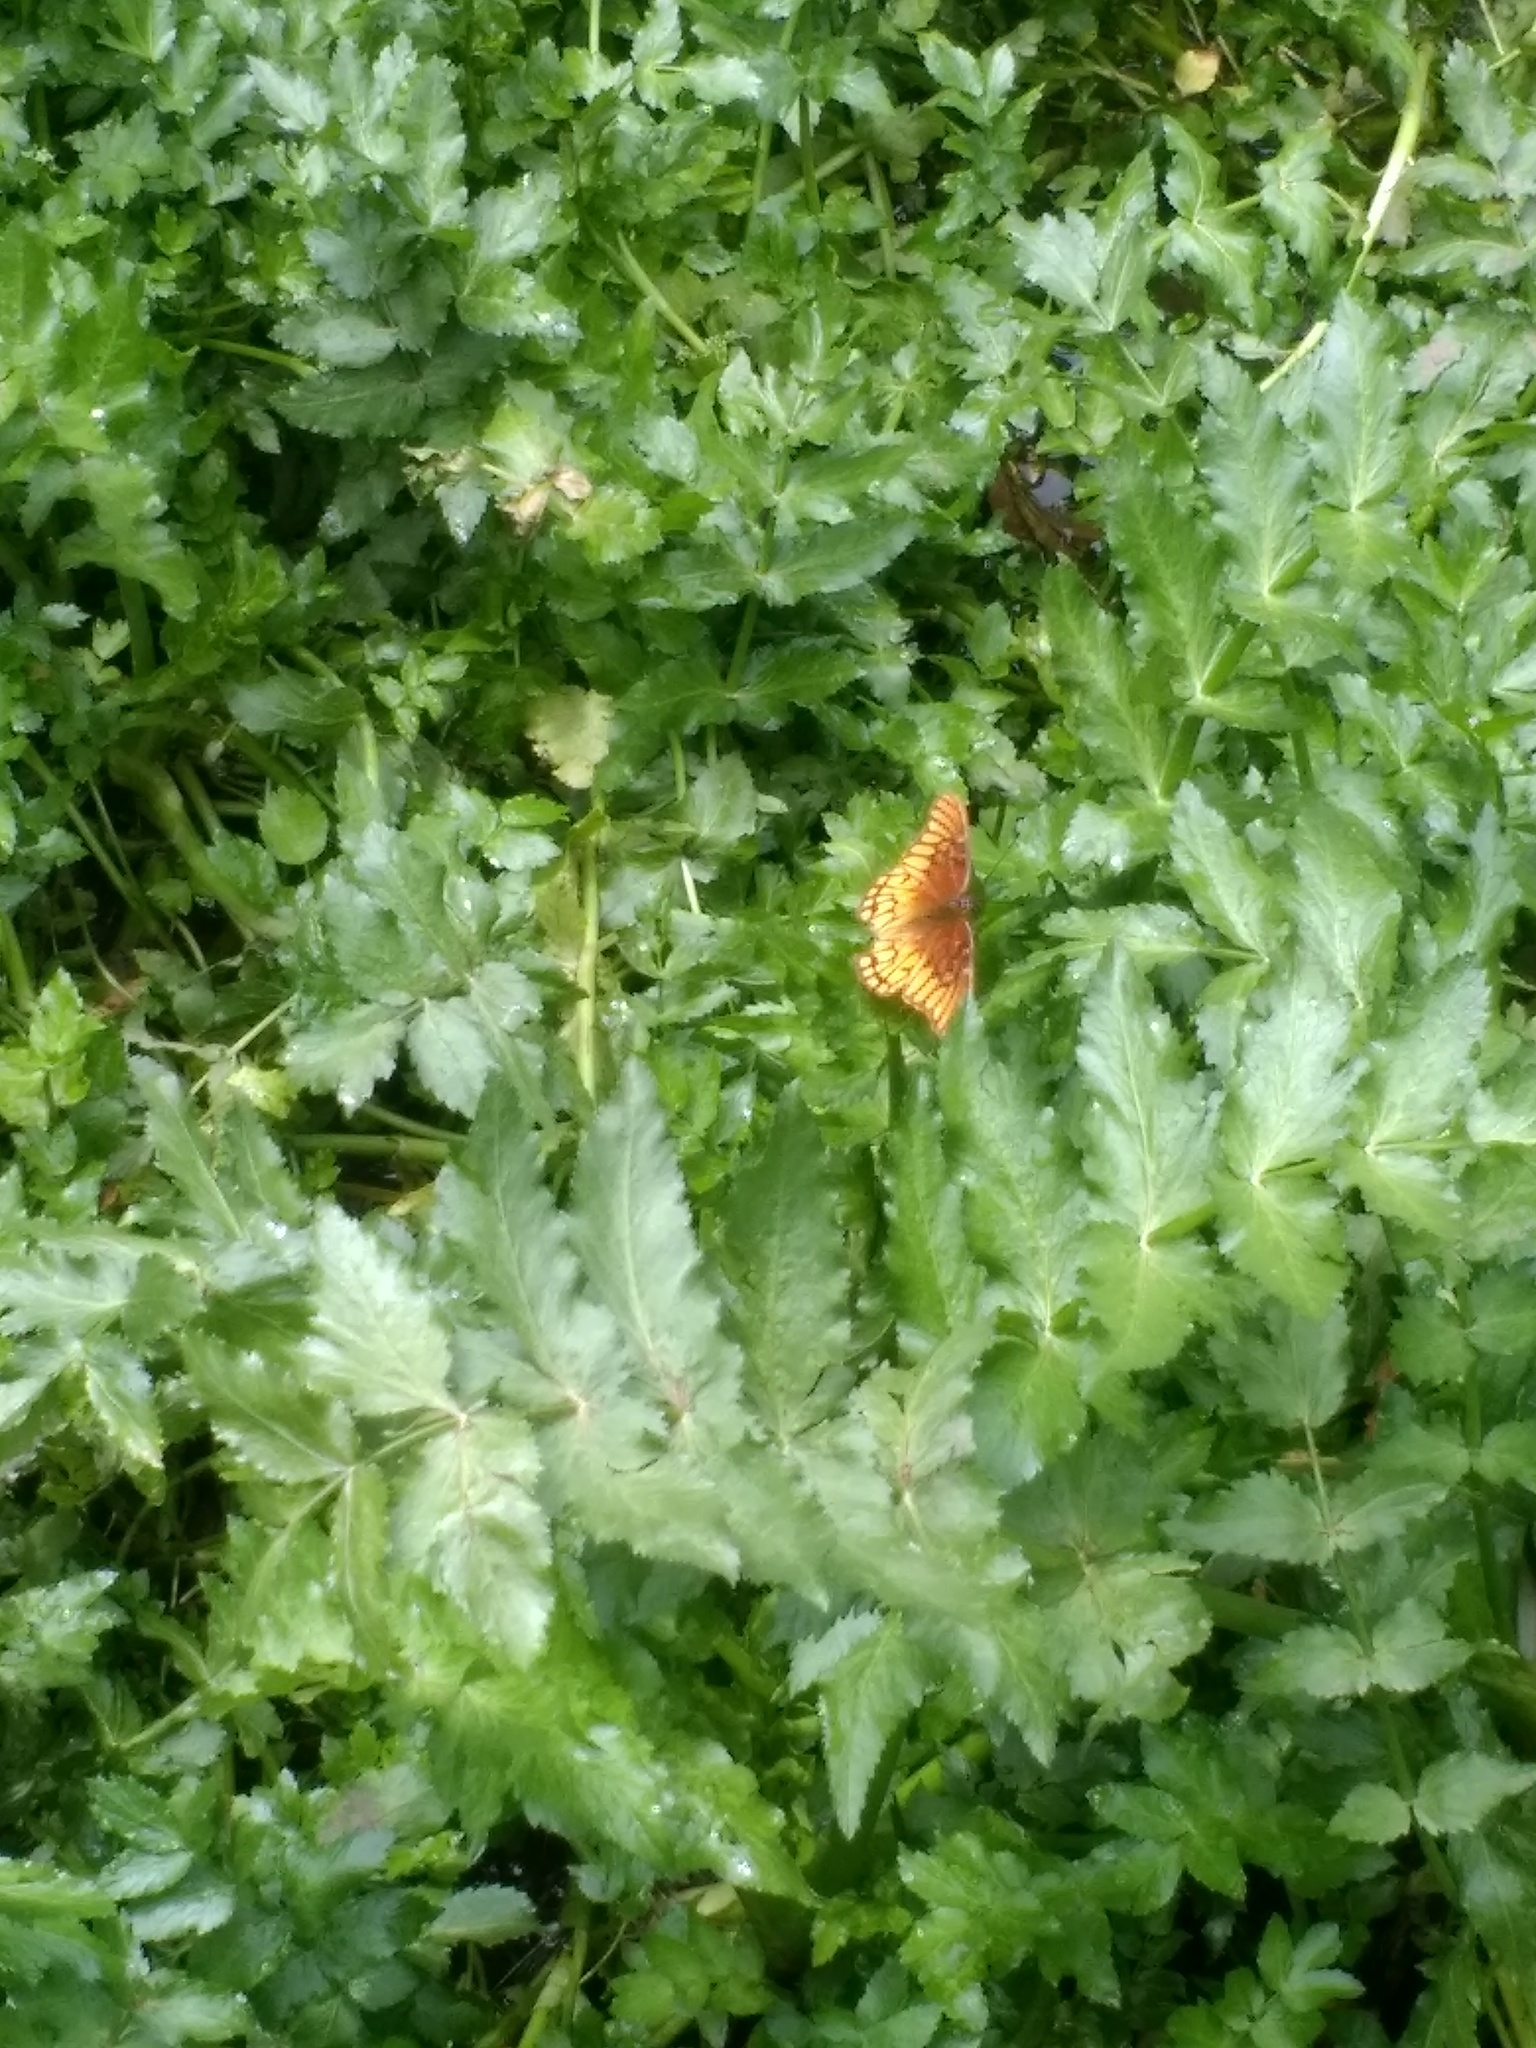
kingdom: Animalia
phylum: Arthropoda
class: Insecta
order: Lepidoptera
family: Nymphalidae
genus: Dione
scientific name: Dione moneta
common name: Mexican silverspot
